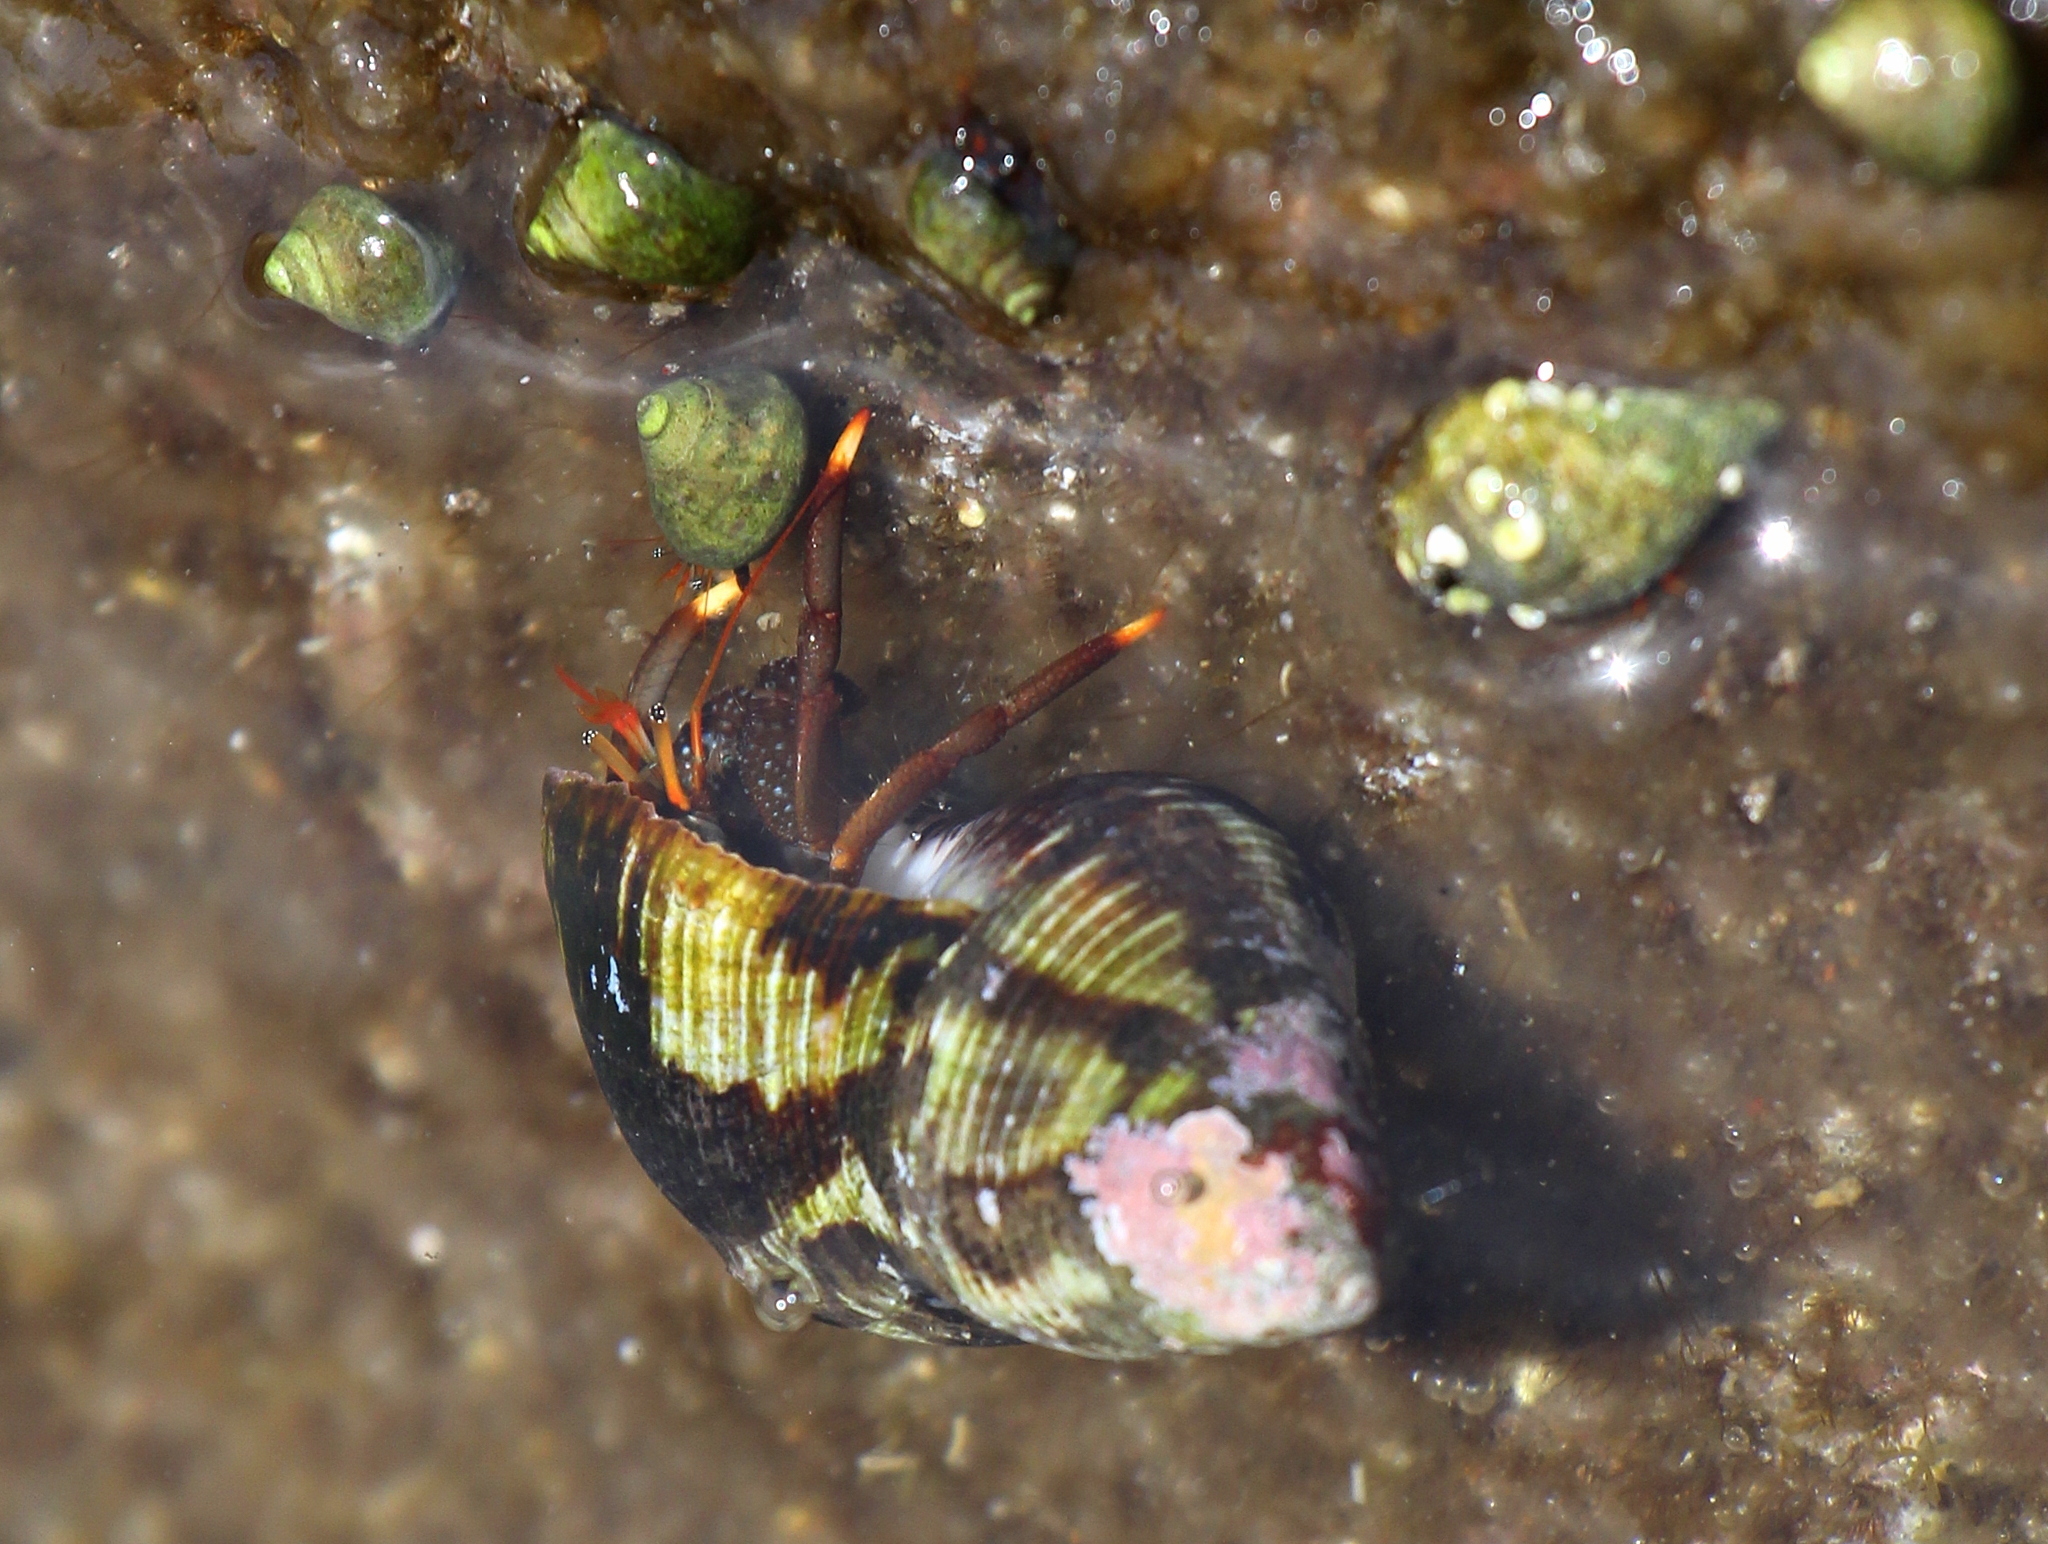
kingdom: Animalia
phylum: Arthropoda
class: Malacostraca
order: Decapoda
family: Diogenidae
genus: Clibanarius
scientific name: Clibanarius aequabilis
